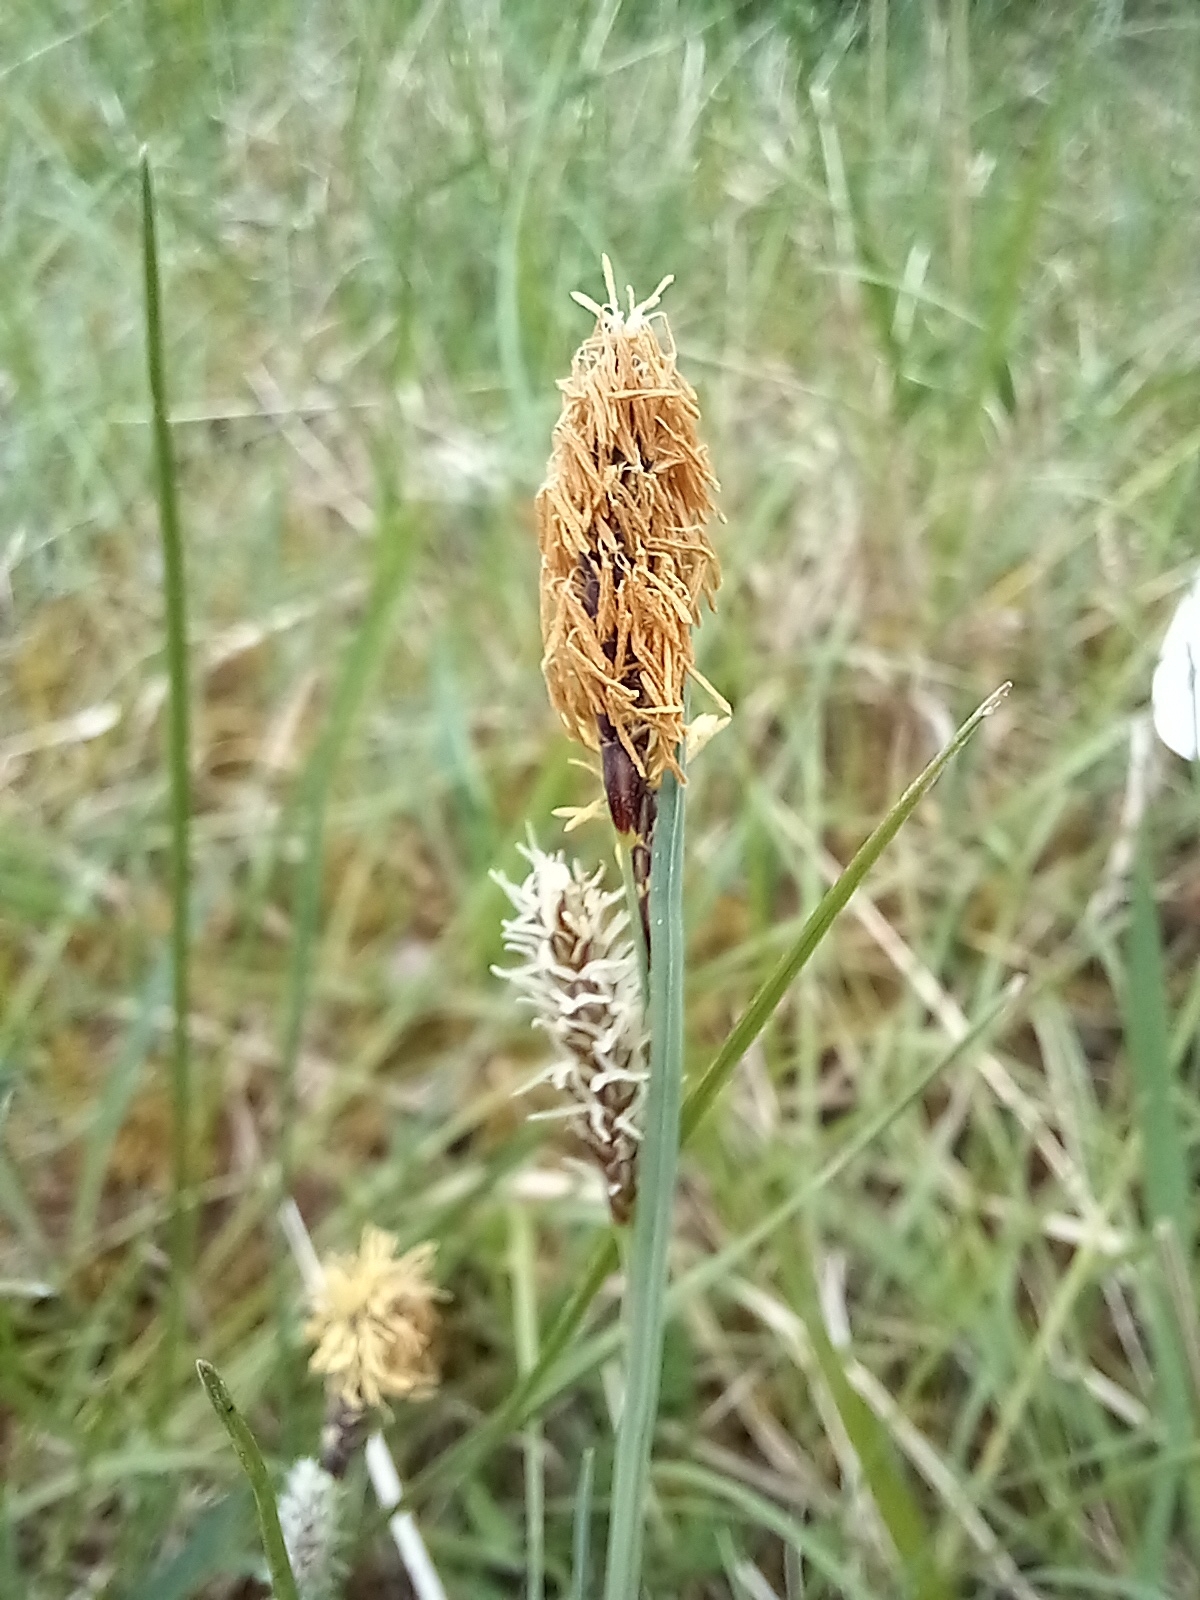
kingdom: Plantae
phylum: Tracheophyta
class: Liliopsida
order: Poales
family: Cyperaceae
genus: Carex
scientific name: Carex flacca
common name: Glaucous sedge
